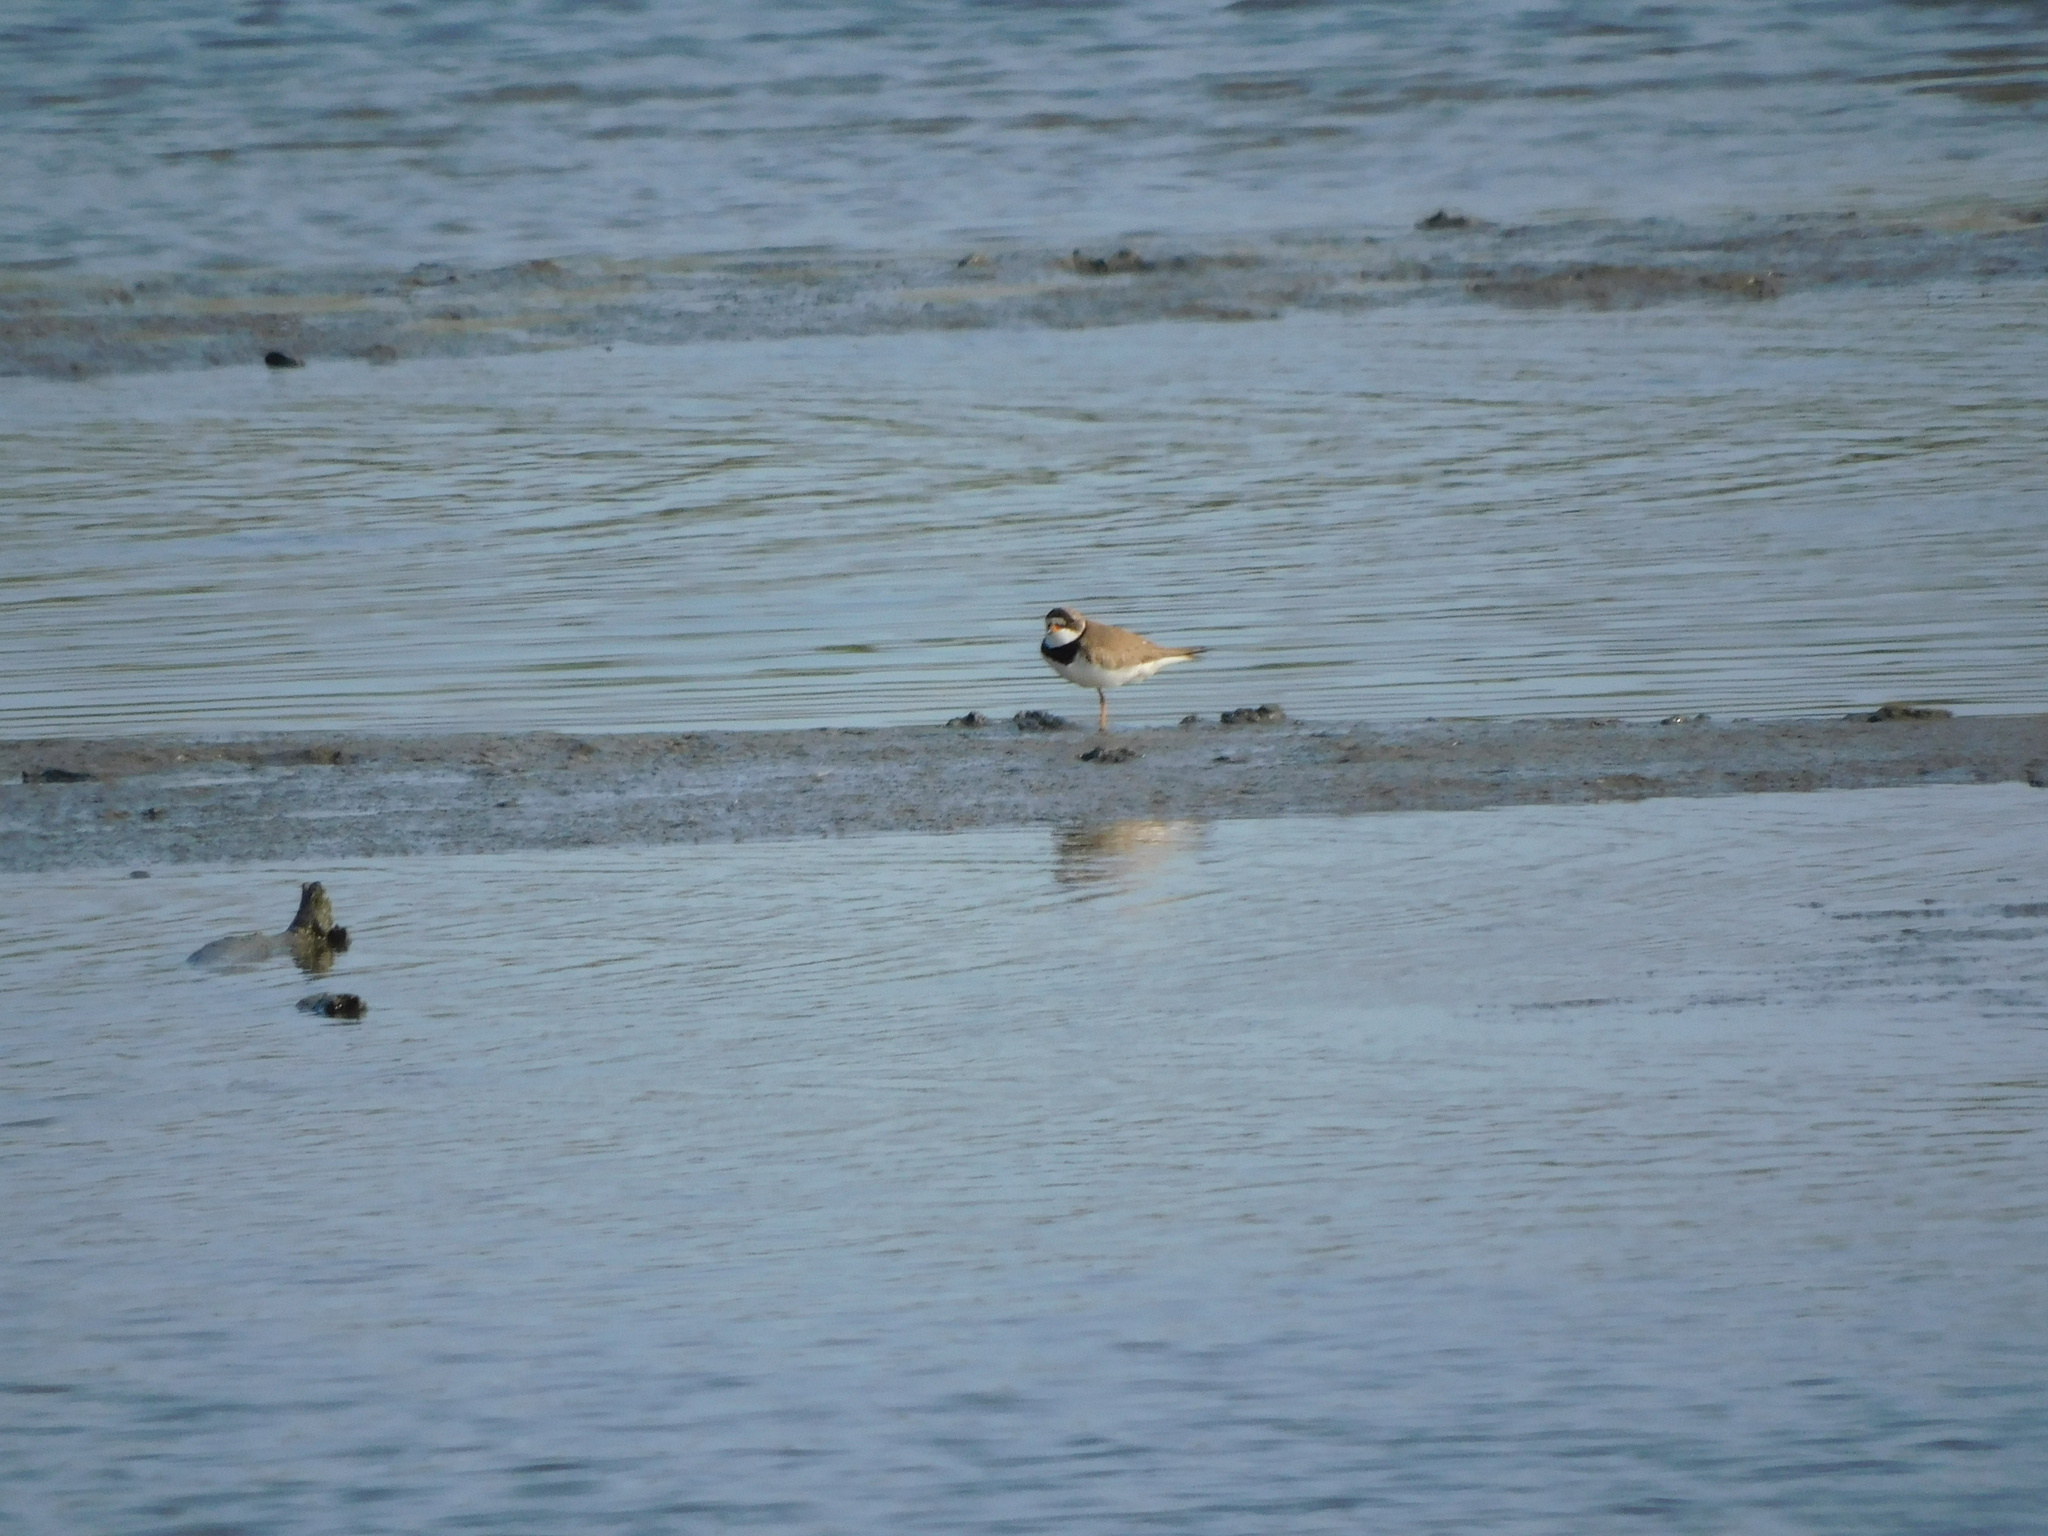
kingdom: Animalia
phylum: Chordata
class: Aves
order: Charadriiformes
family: Charadriidae
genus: Charadrius
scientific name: Charadrius semipalmatus
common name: Semipalmated plover
